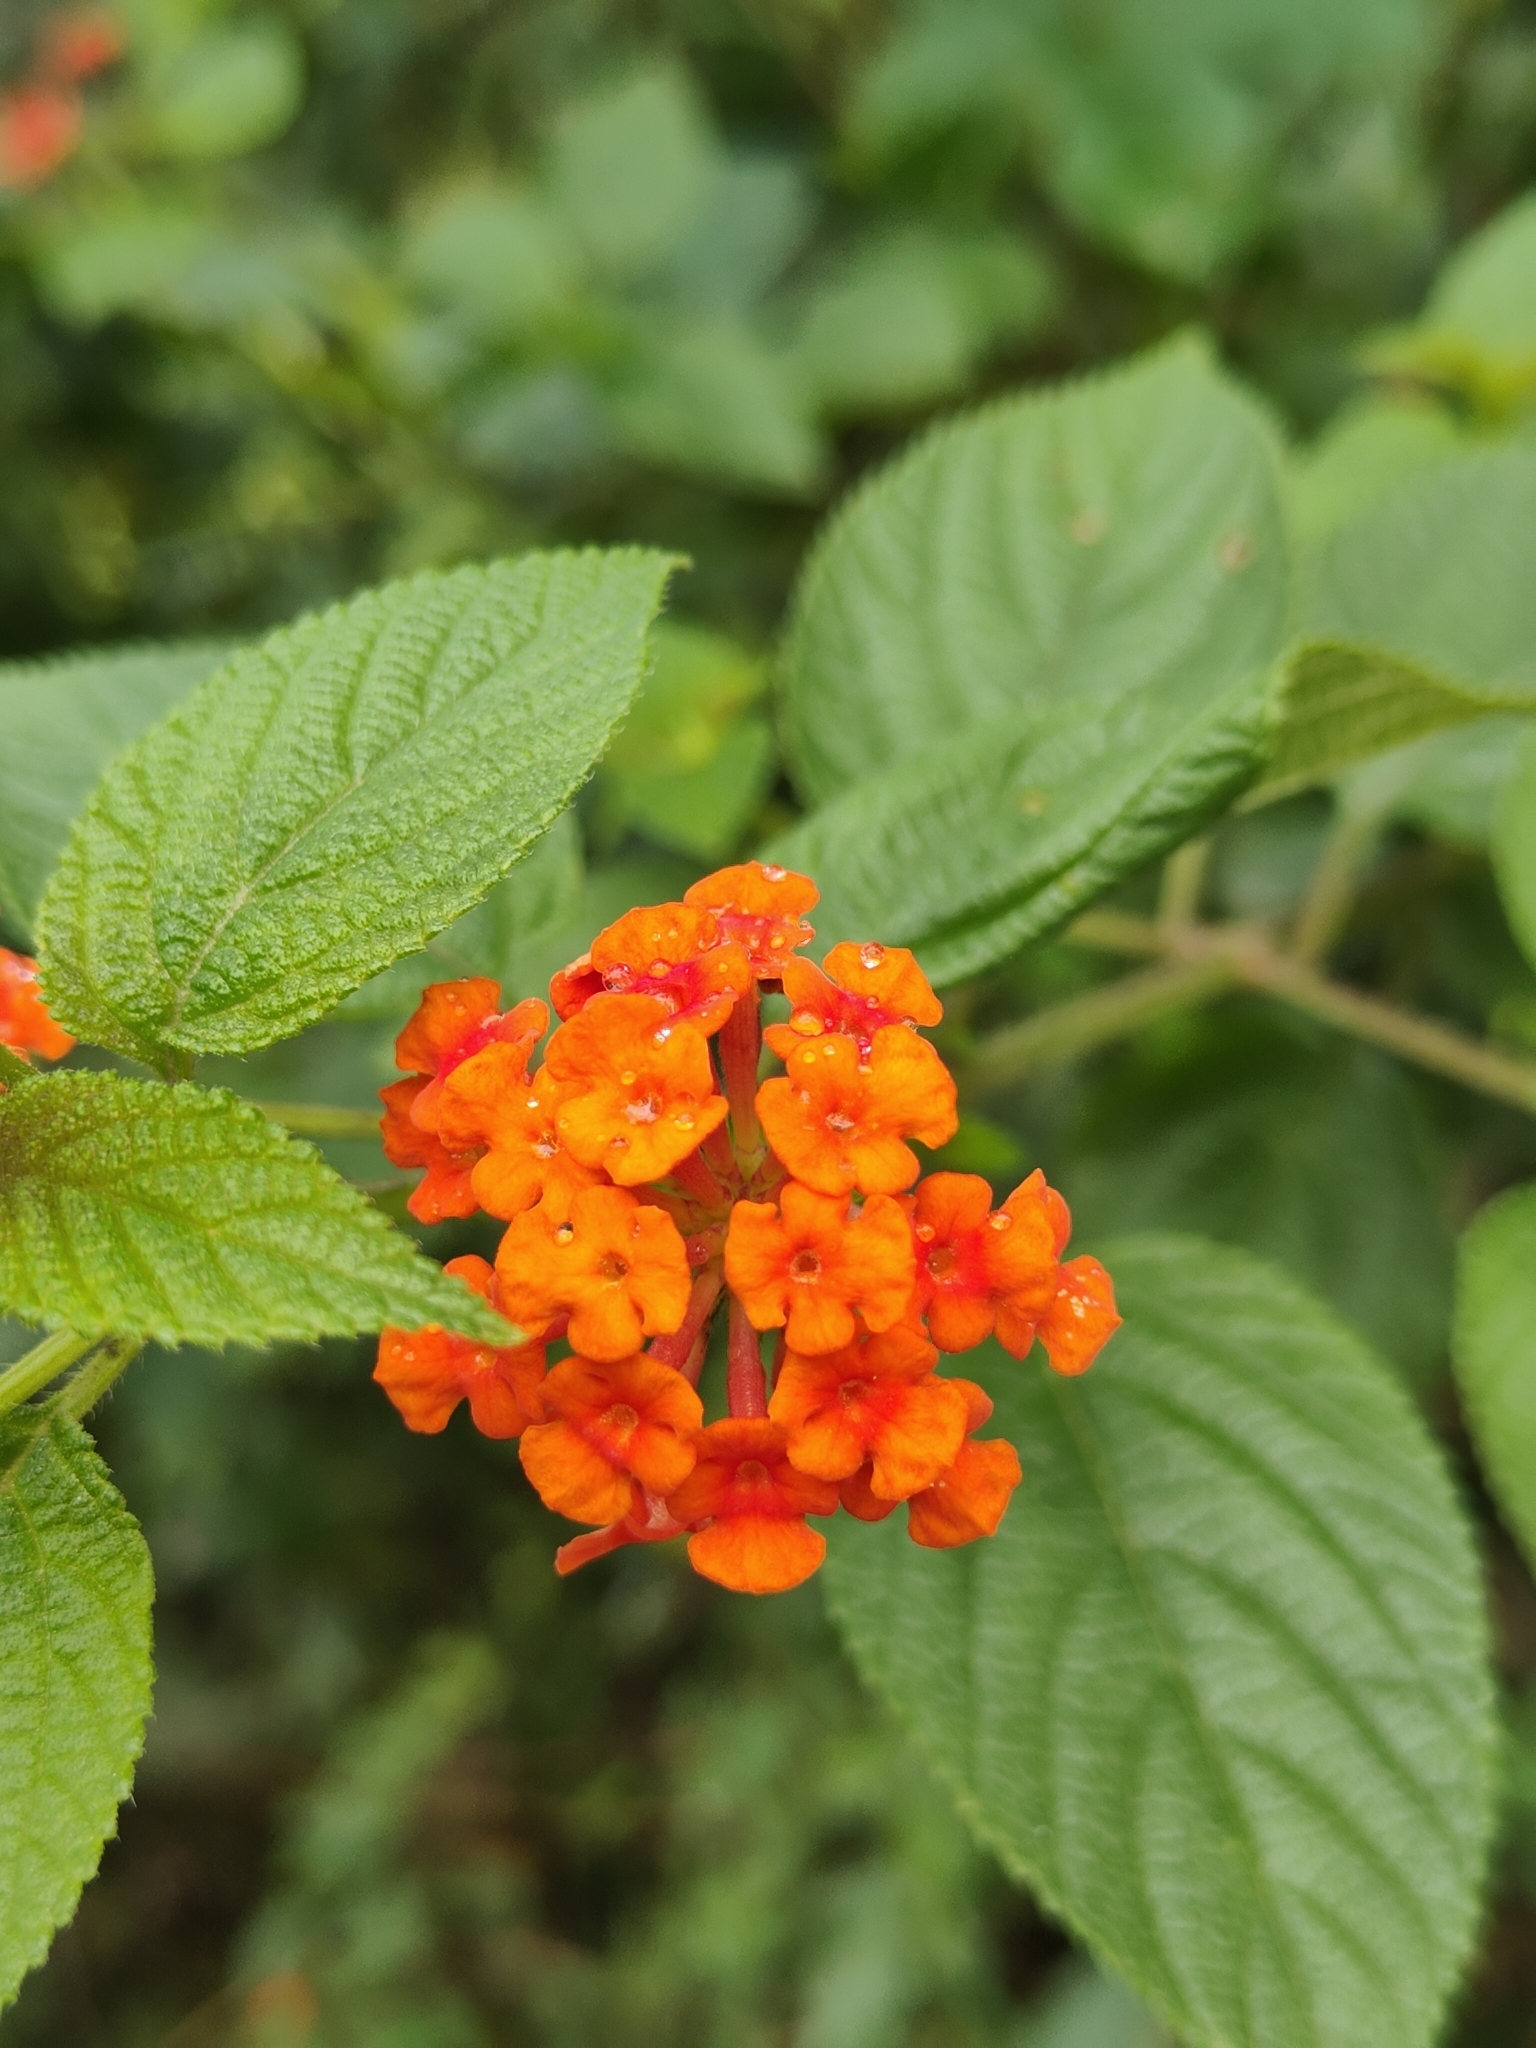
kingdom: Plantae
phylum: Tracheophyta
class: Magnoliopsida
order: Lamiales
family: Verbenaceae
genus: Lantana
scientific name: Lantana camara
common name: Lantana
